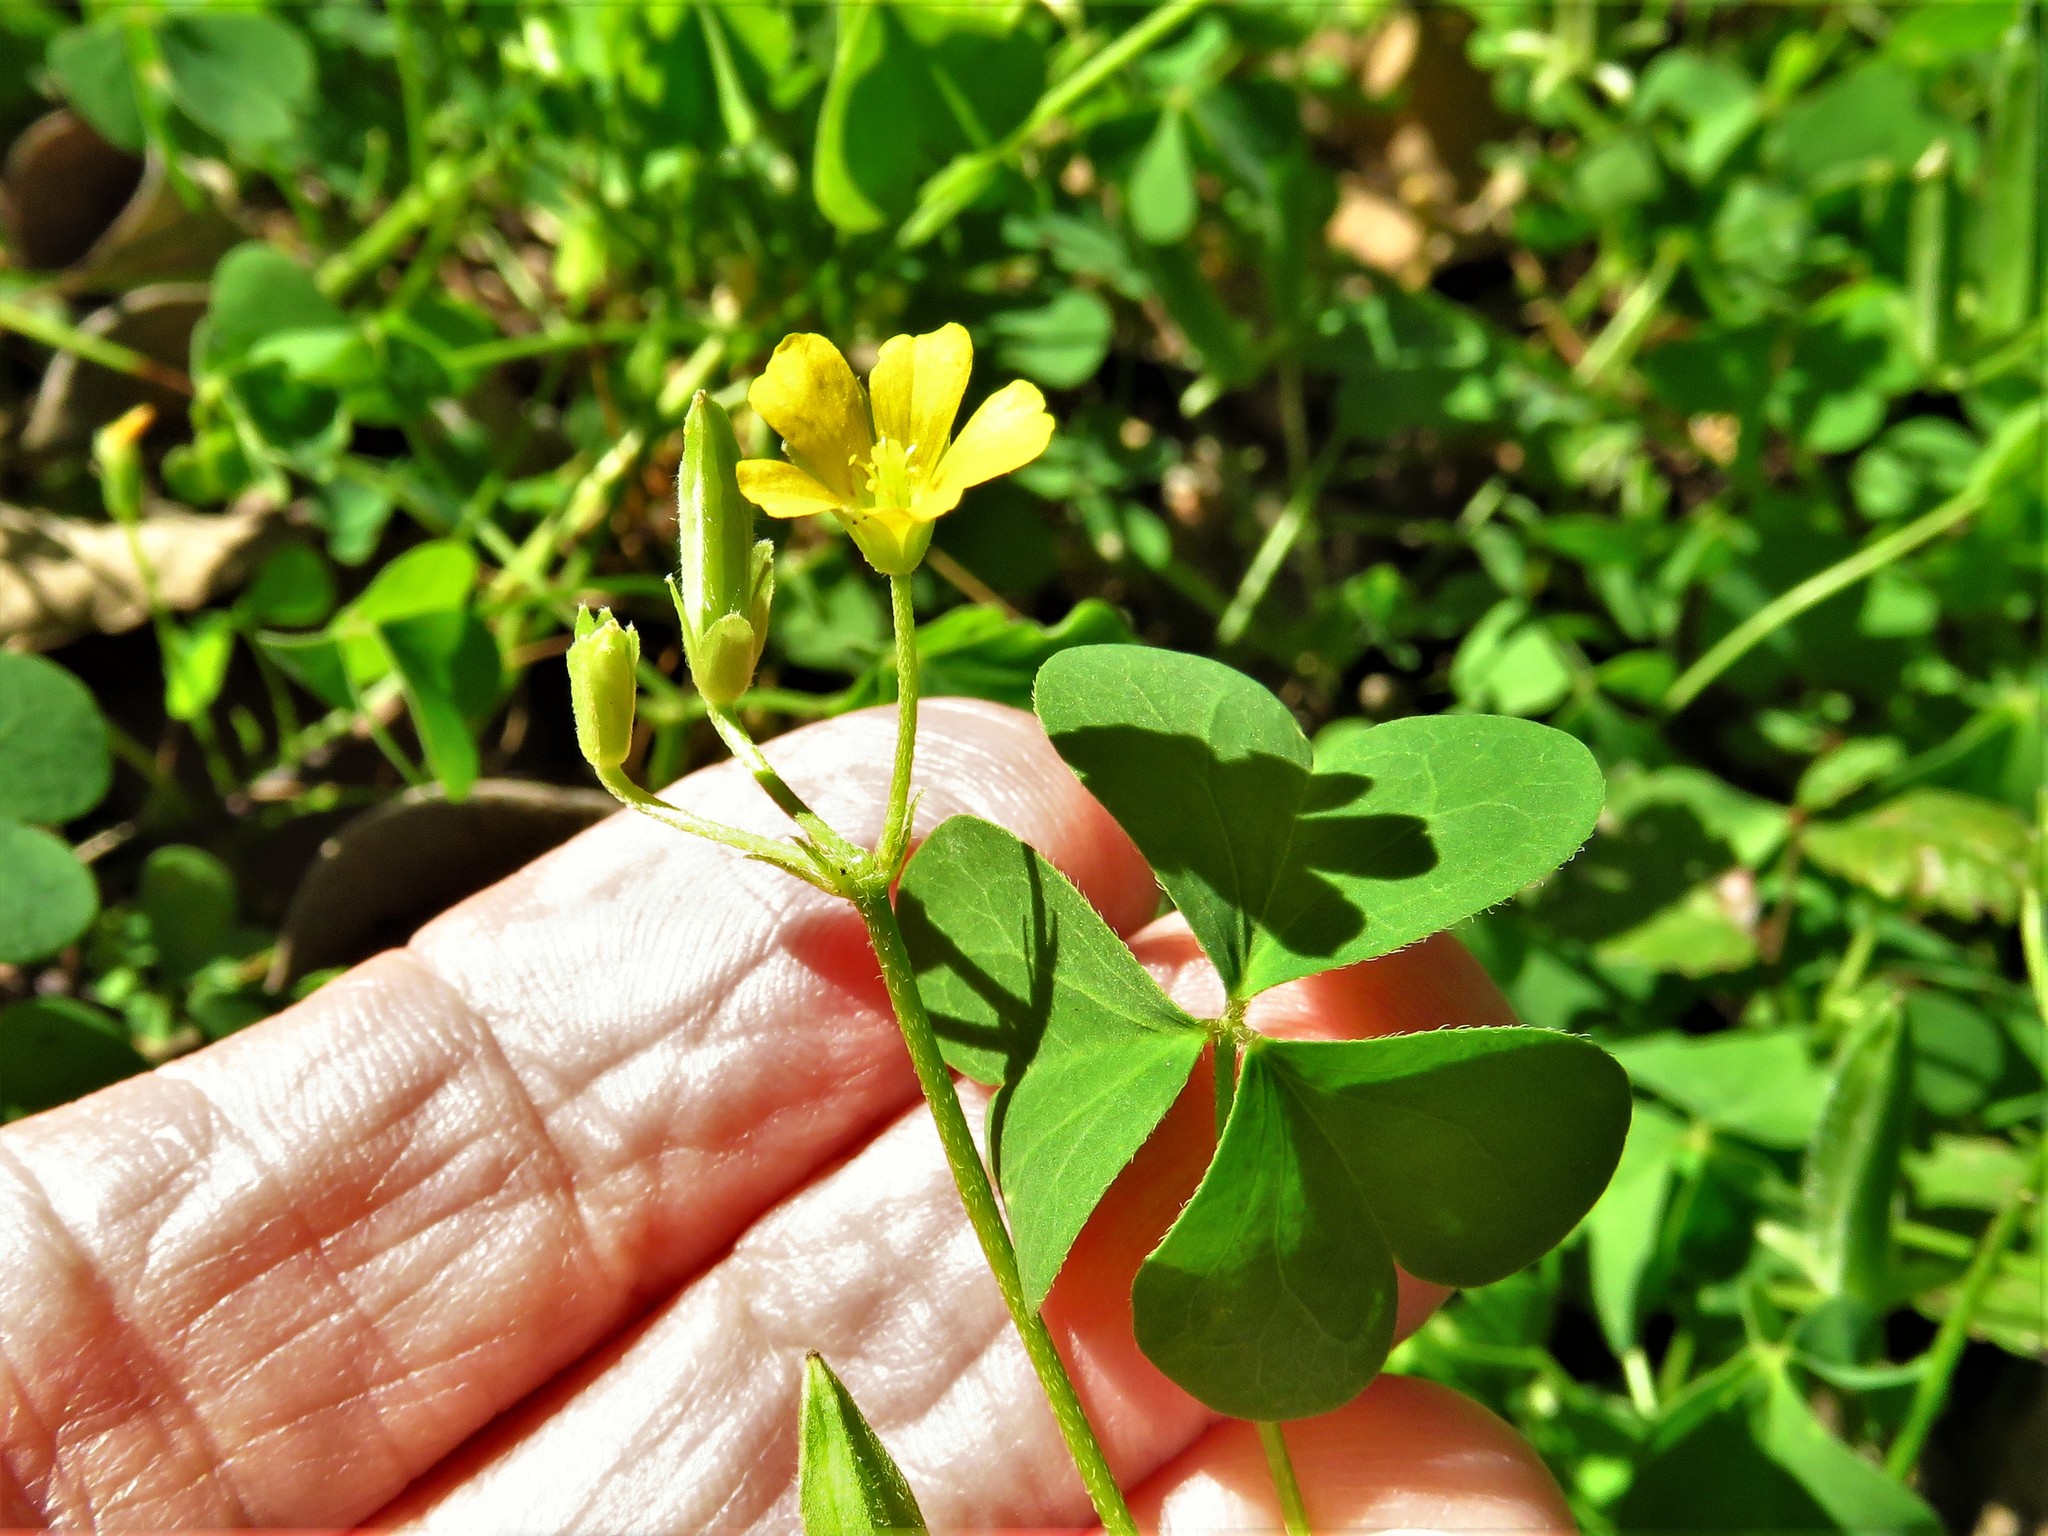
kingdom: Plantae
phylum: Tracheophyta
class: Magnoliopsida
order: Oxalidales
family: Oxalidaceae
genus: Oxalis
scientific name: Oxalis dillenii
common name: Sussex yellow-sorrel
